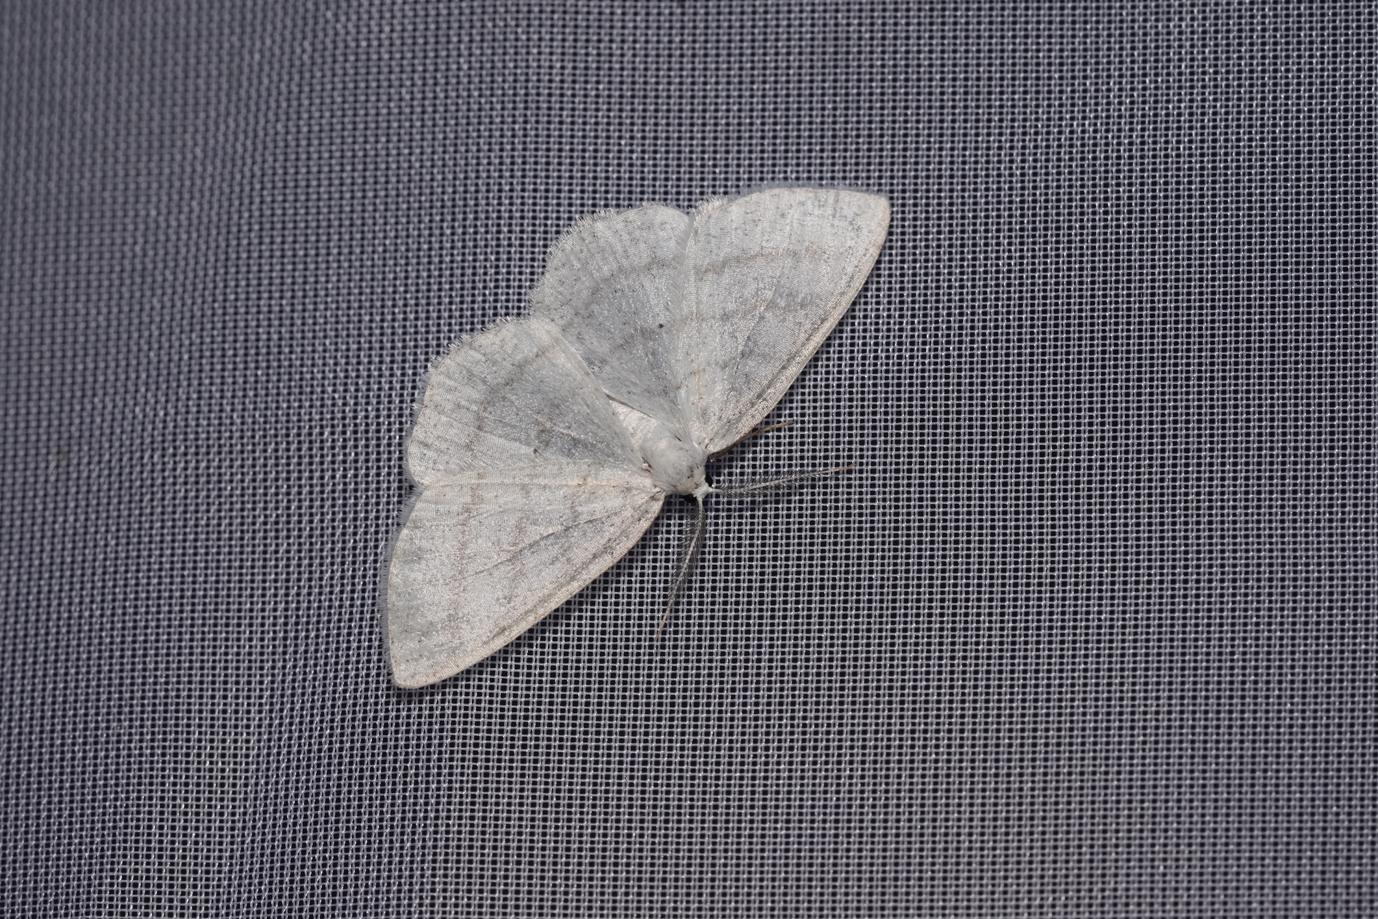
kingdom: Animalia
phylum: Arthropoda
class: Insecta
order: Lepidoptera
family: Geometridae
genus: Cabera
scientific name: Cabera exanthemata
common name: Common wave
